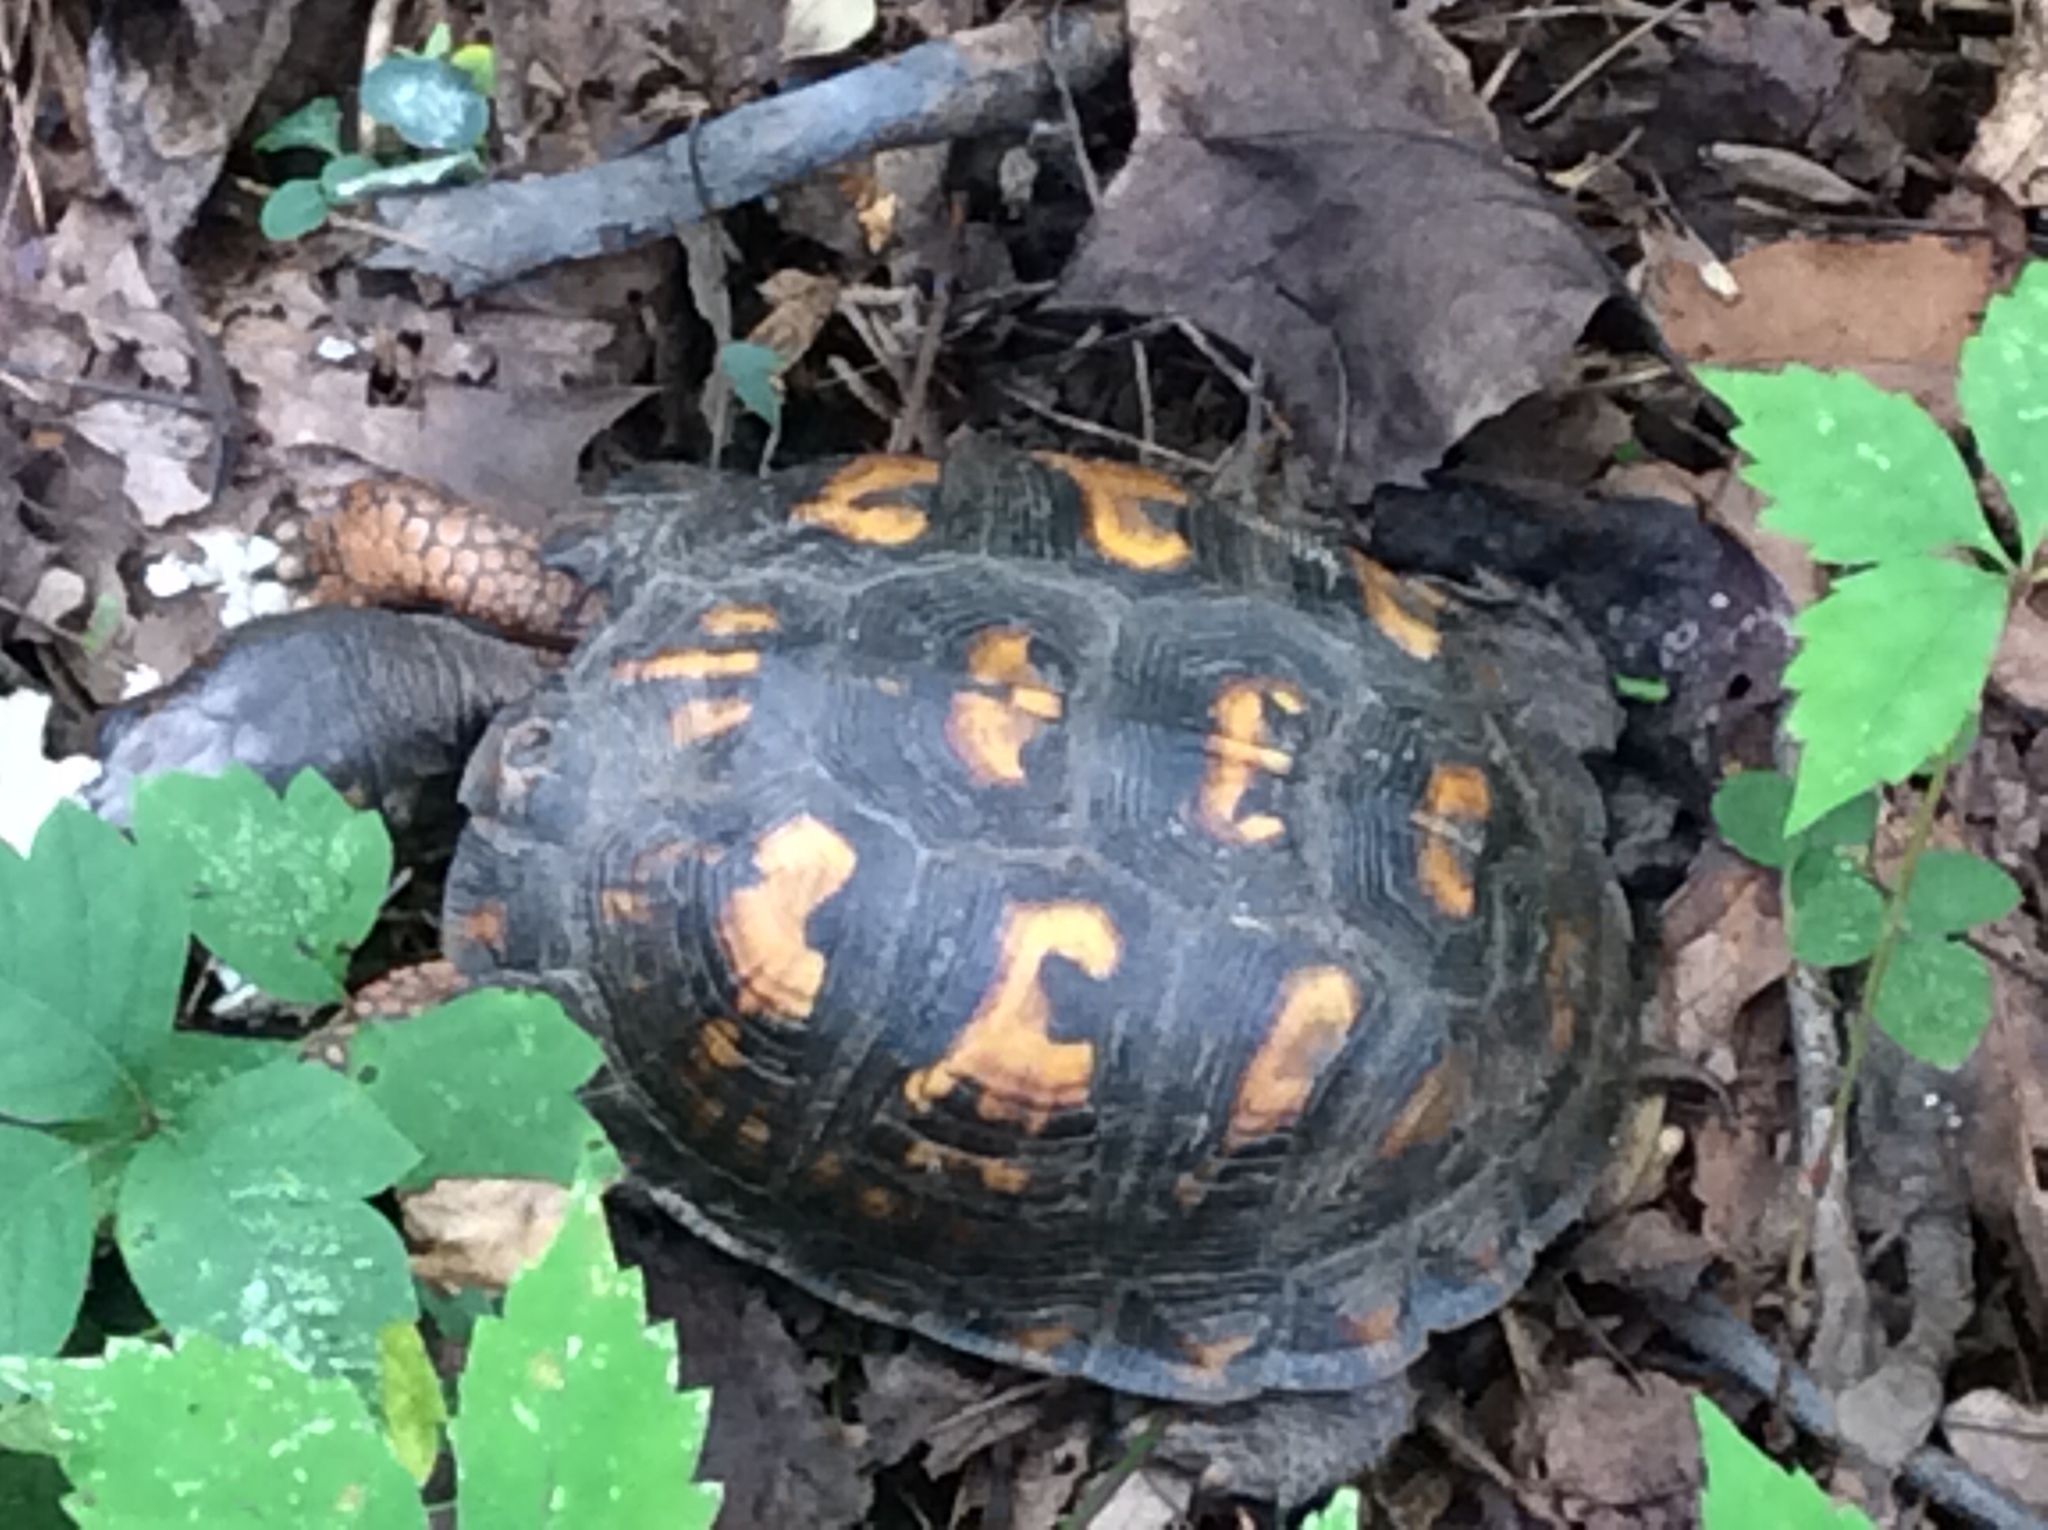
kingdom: Animalia
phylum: Chordata
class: Testudines
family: Emydidae
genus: Terrapene
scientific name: Terrapene carolina
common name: Common box turtle
